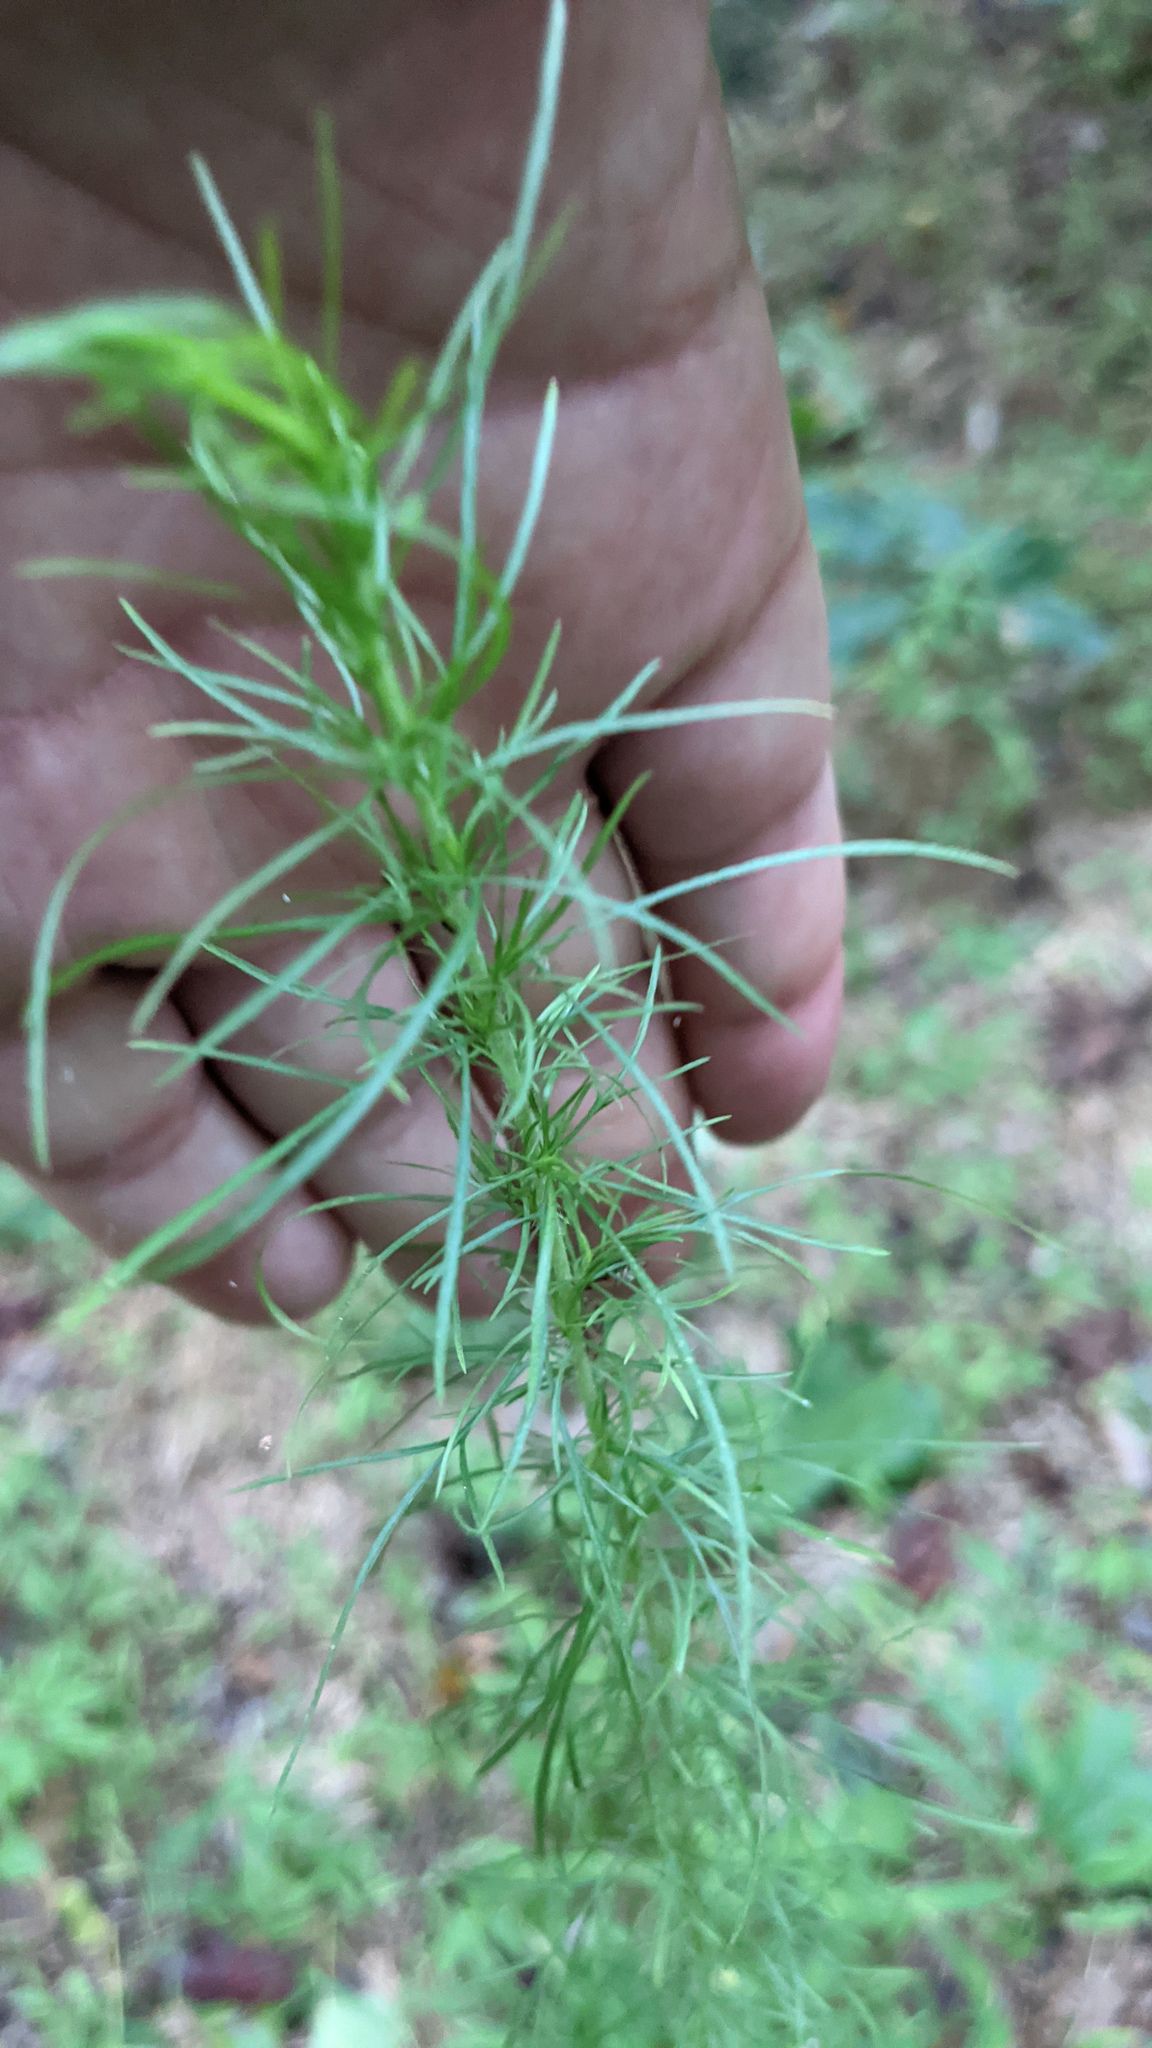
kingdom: Plantae
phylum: Tracheophyta
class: Magnoliopsida
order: Asterales
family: Asteraceae
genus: Eupatorium
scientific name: Eupatorium capillifolium
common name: Dog-fennel
